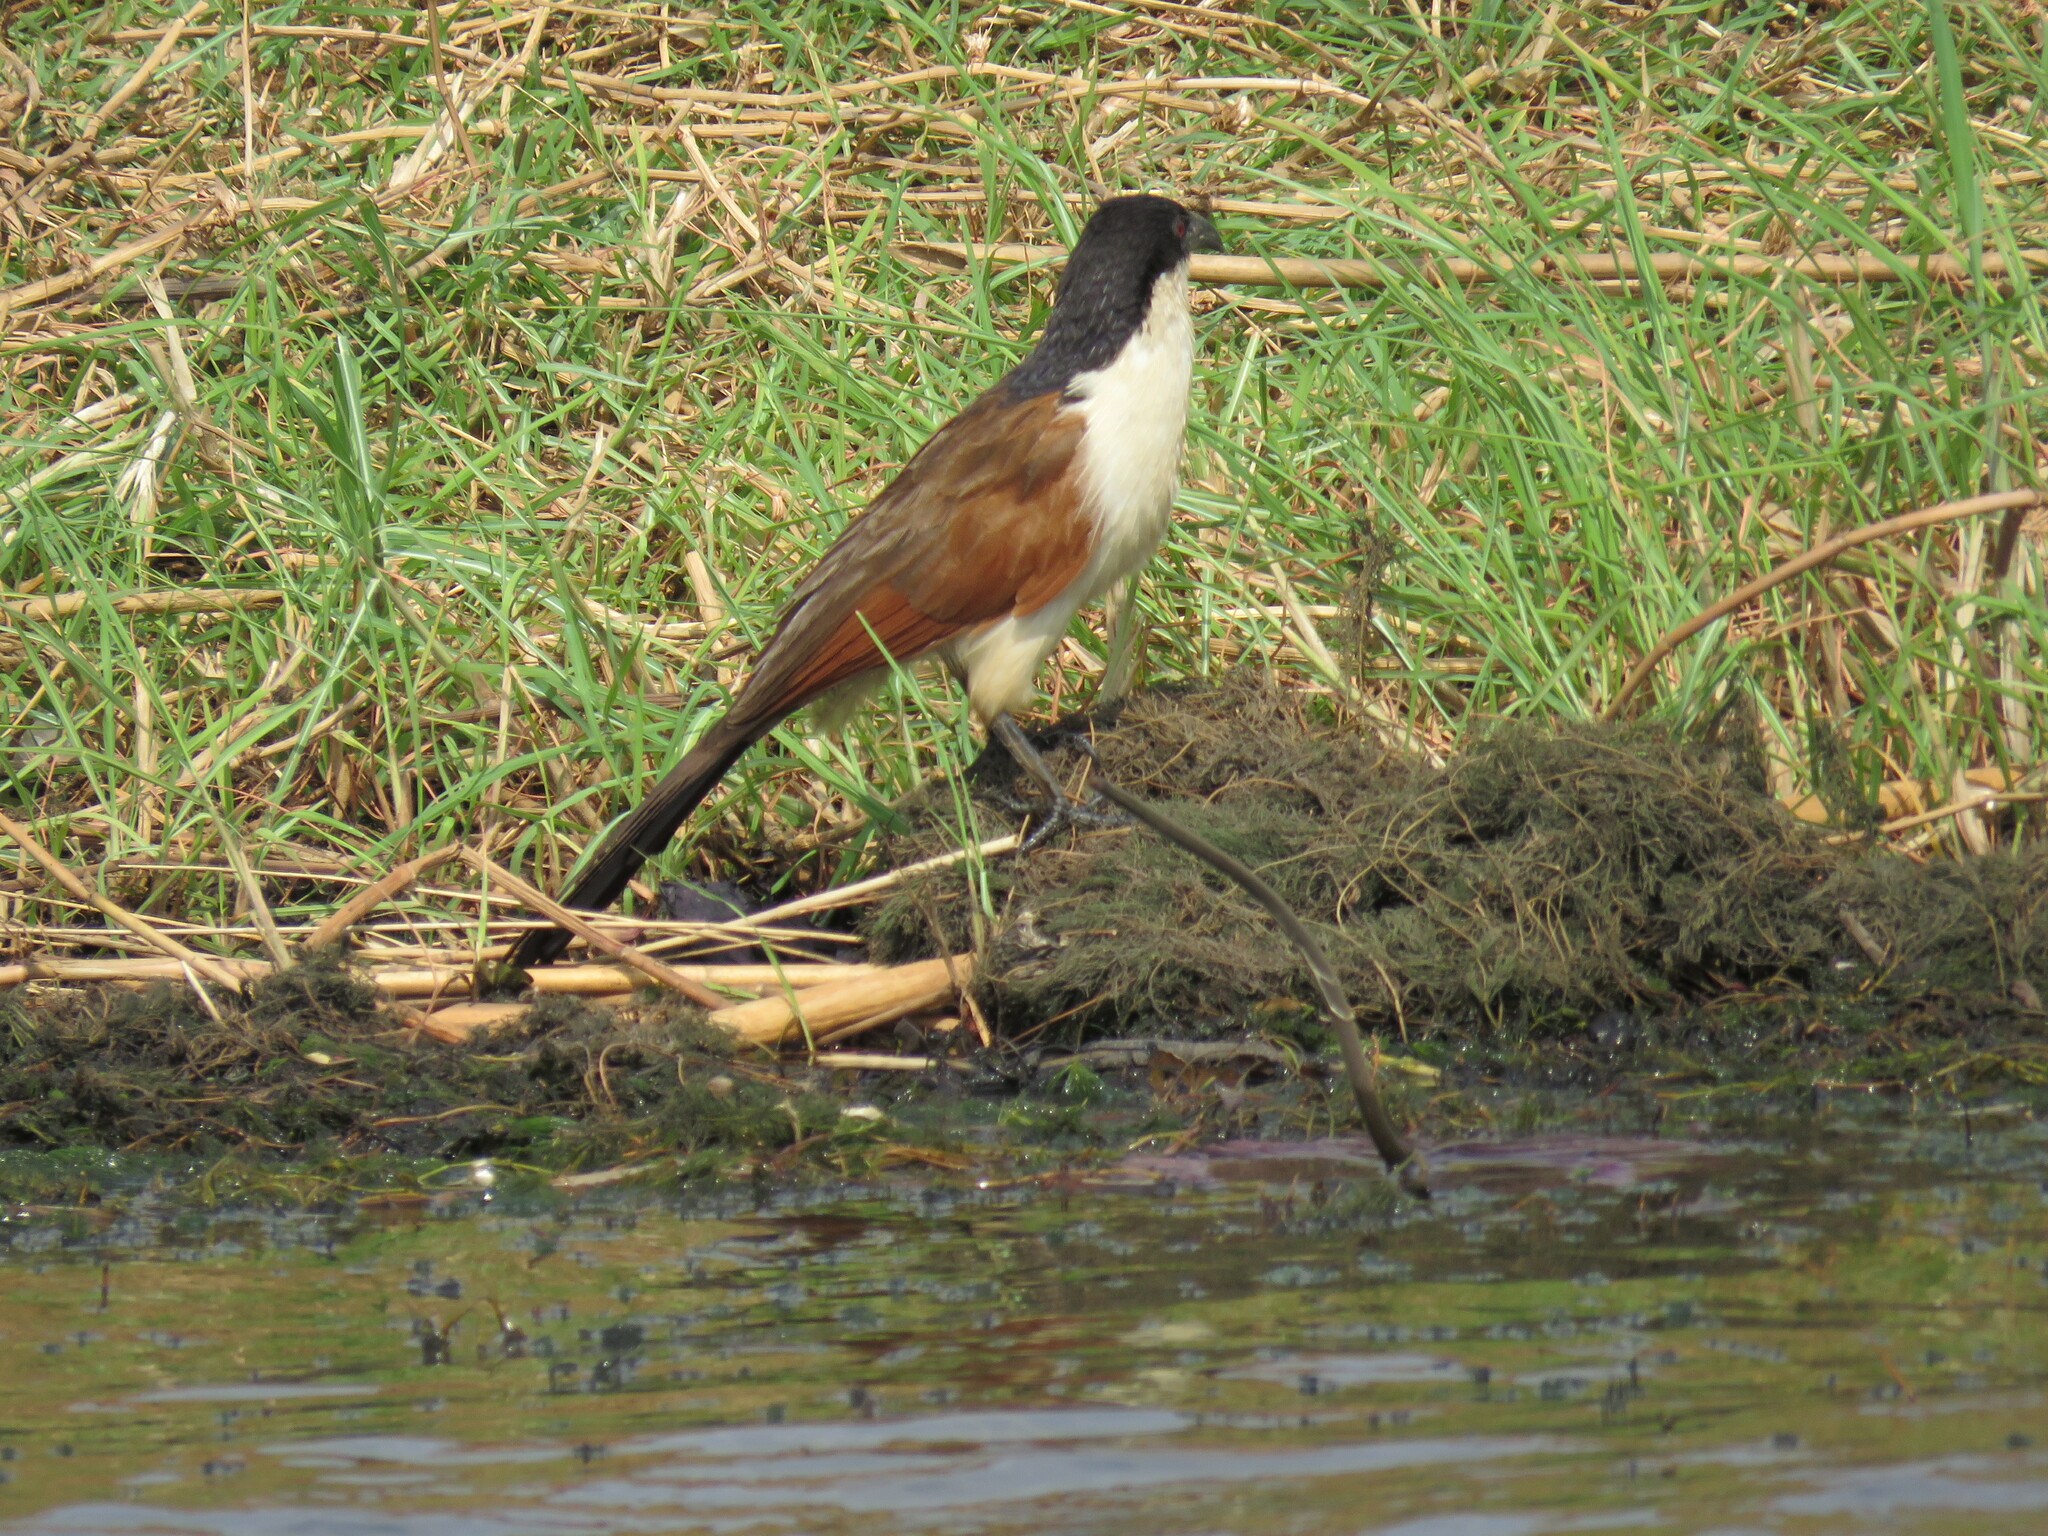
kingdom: Animalia
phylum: Chordata
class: Aves
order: Cuculiformes
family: Cuculidae
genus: Centropus
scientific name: Centropus cupreicaudus
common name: Coppery-tailed coucal
